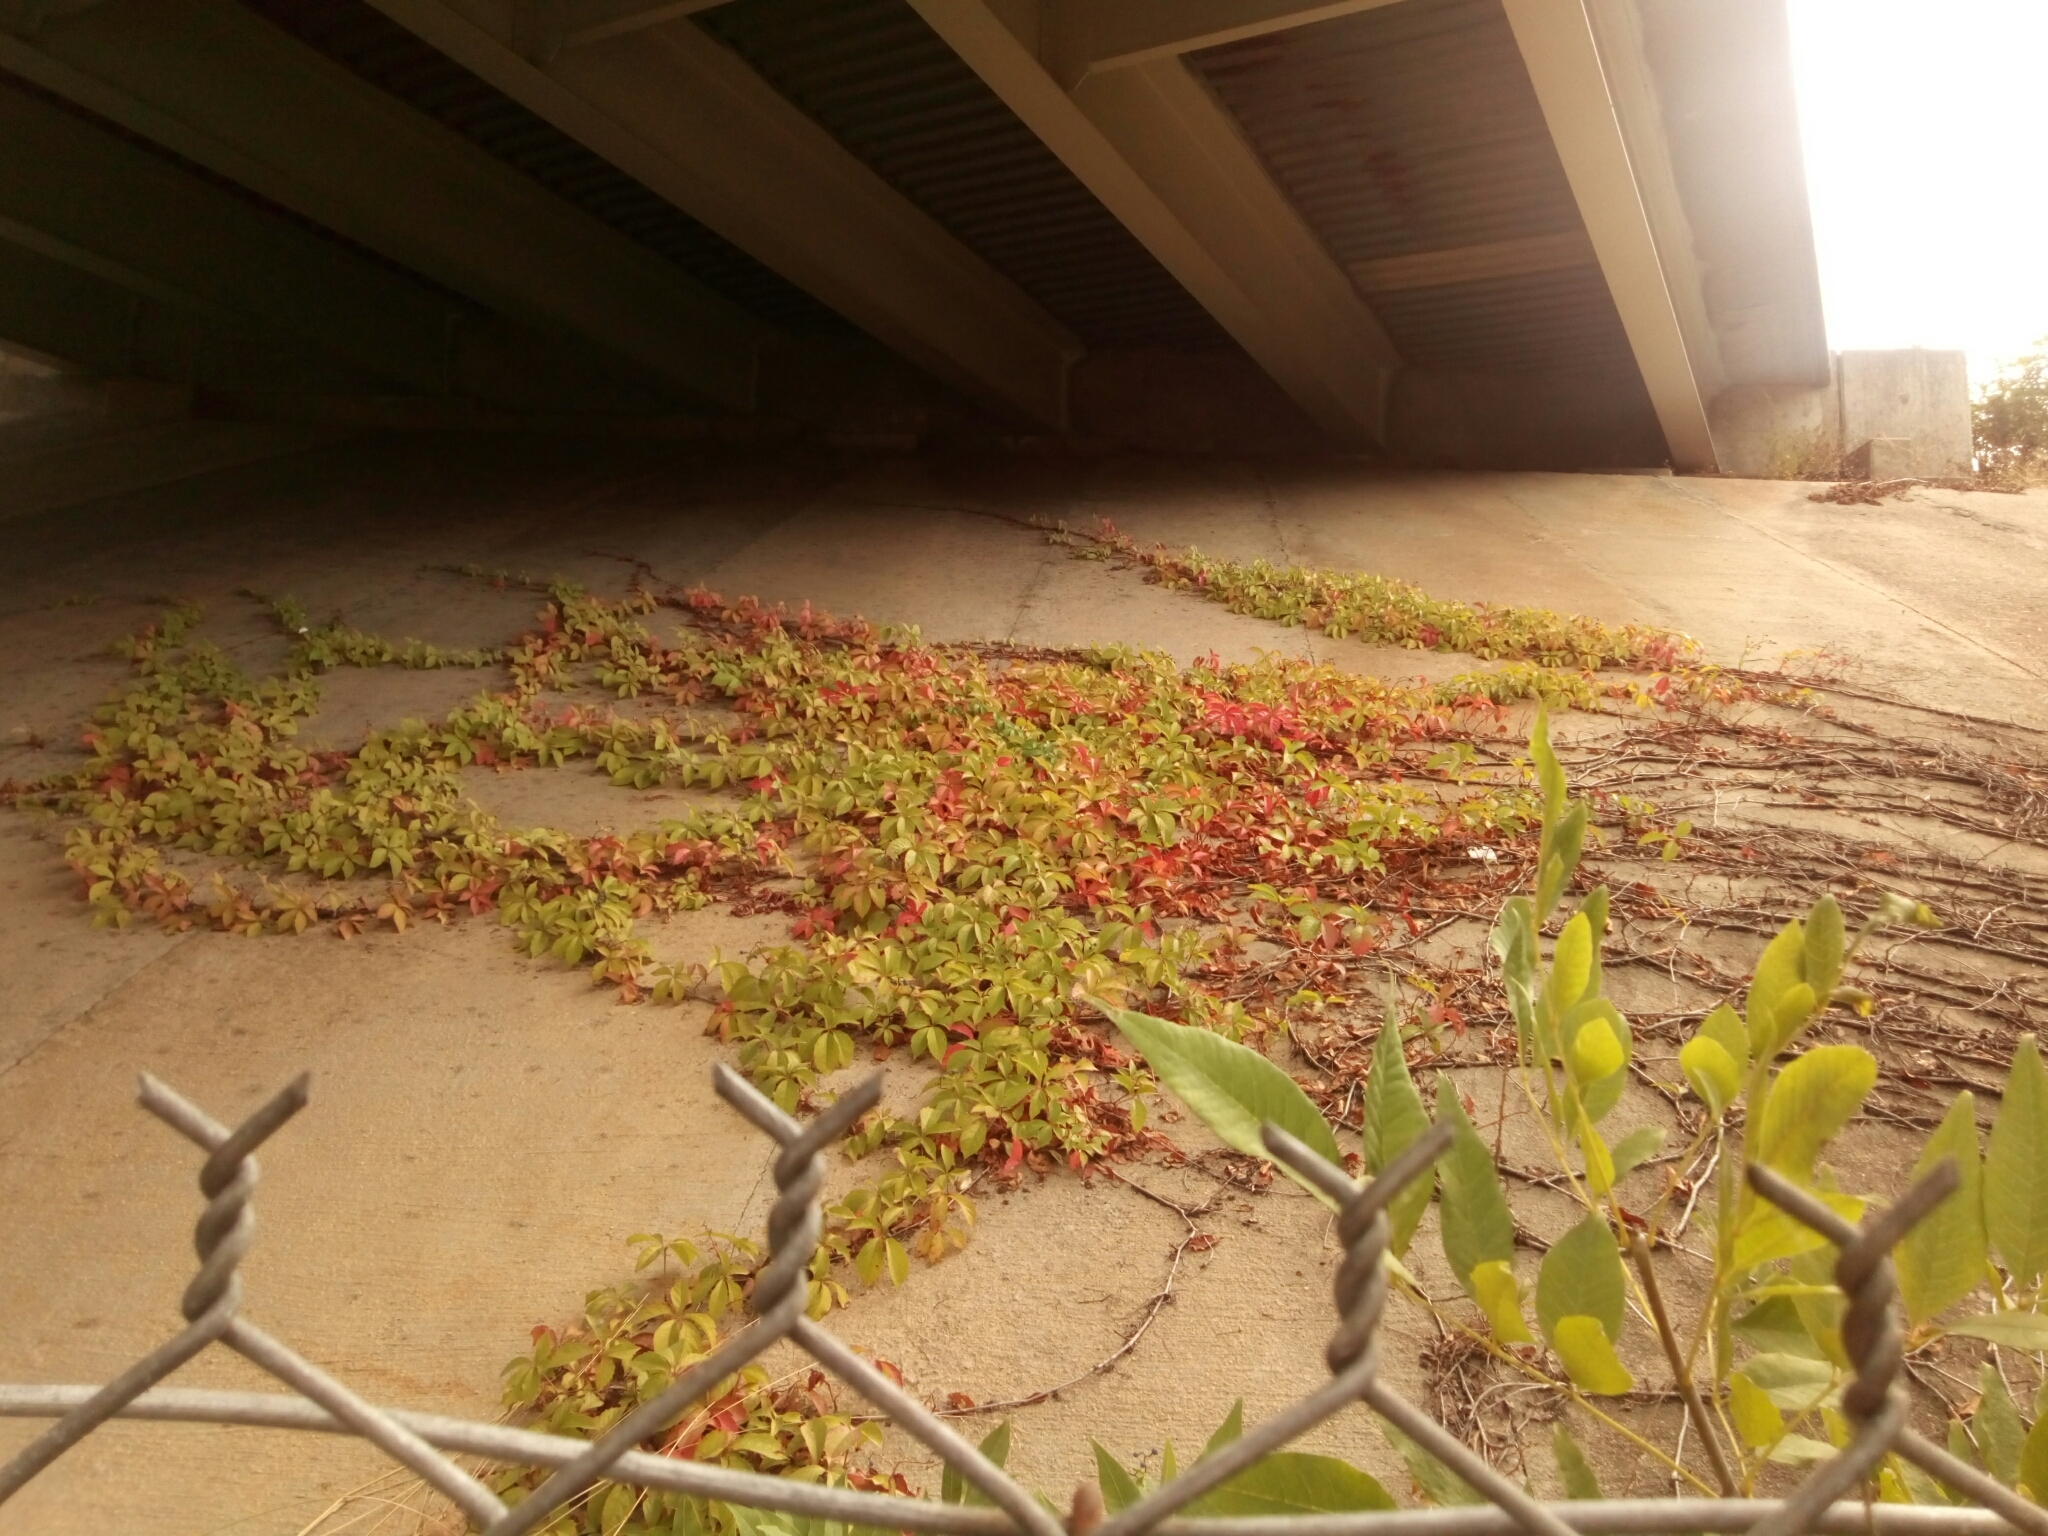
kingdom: Plantae
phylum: Tracheophyta
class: Magnoliopsida
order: Vitales
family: Vitaceae
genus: Parthenocissus
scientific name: Parthenocissus quinquefolia
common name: Virginia-creeper
